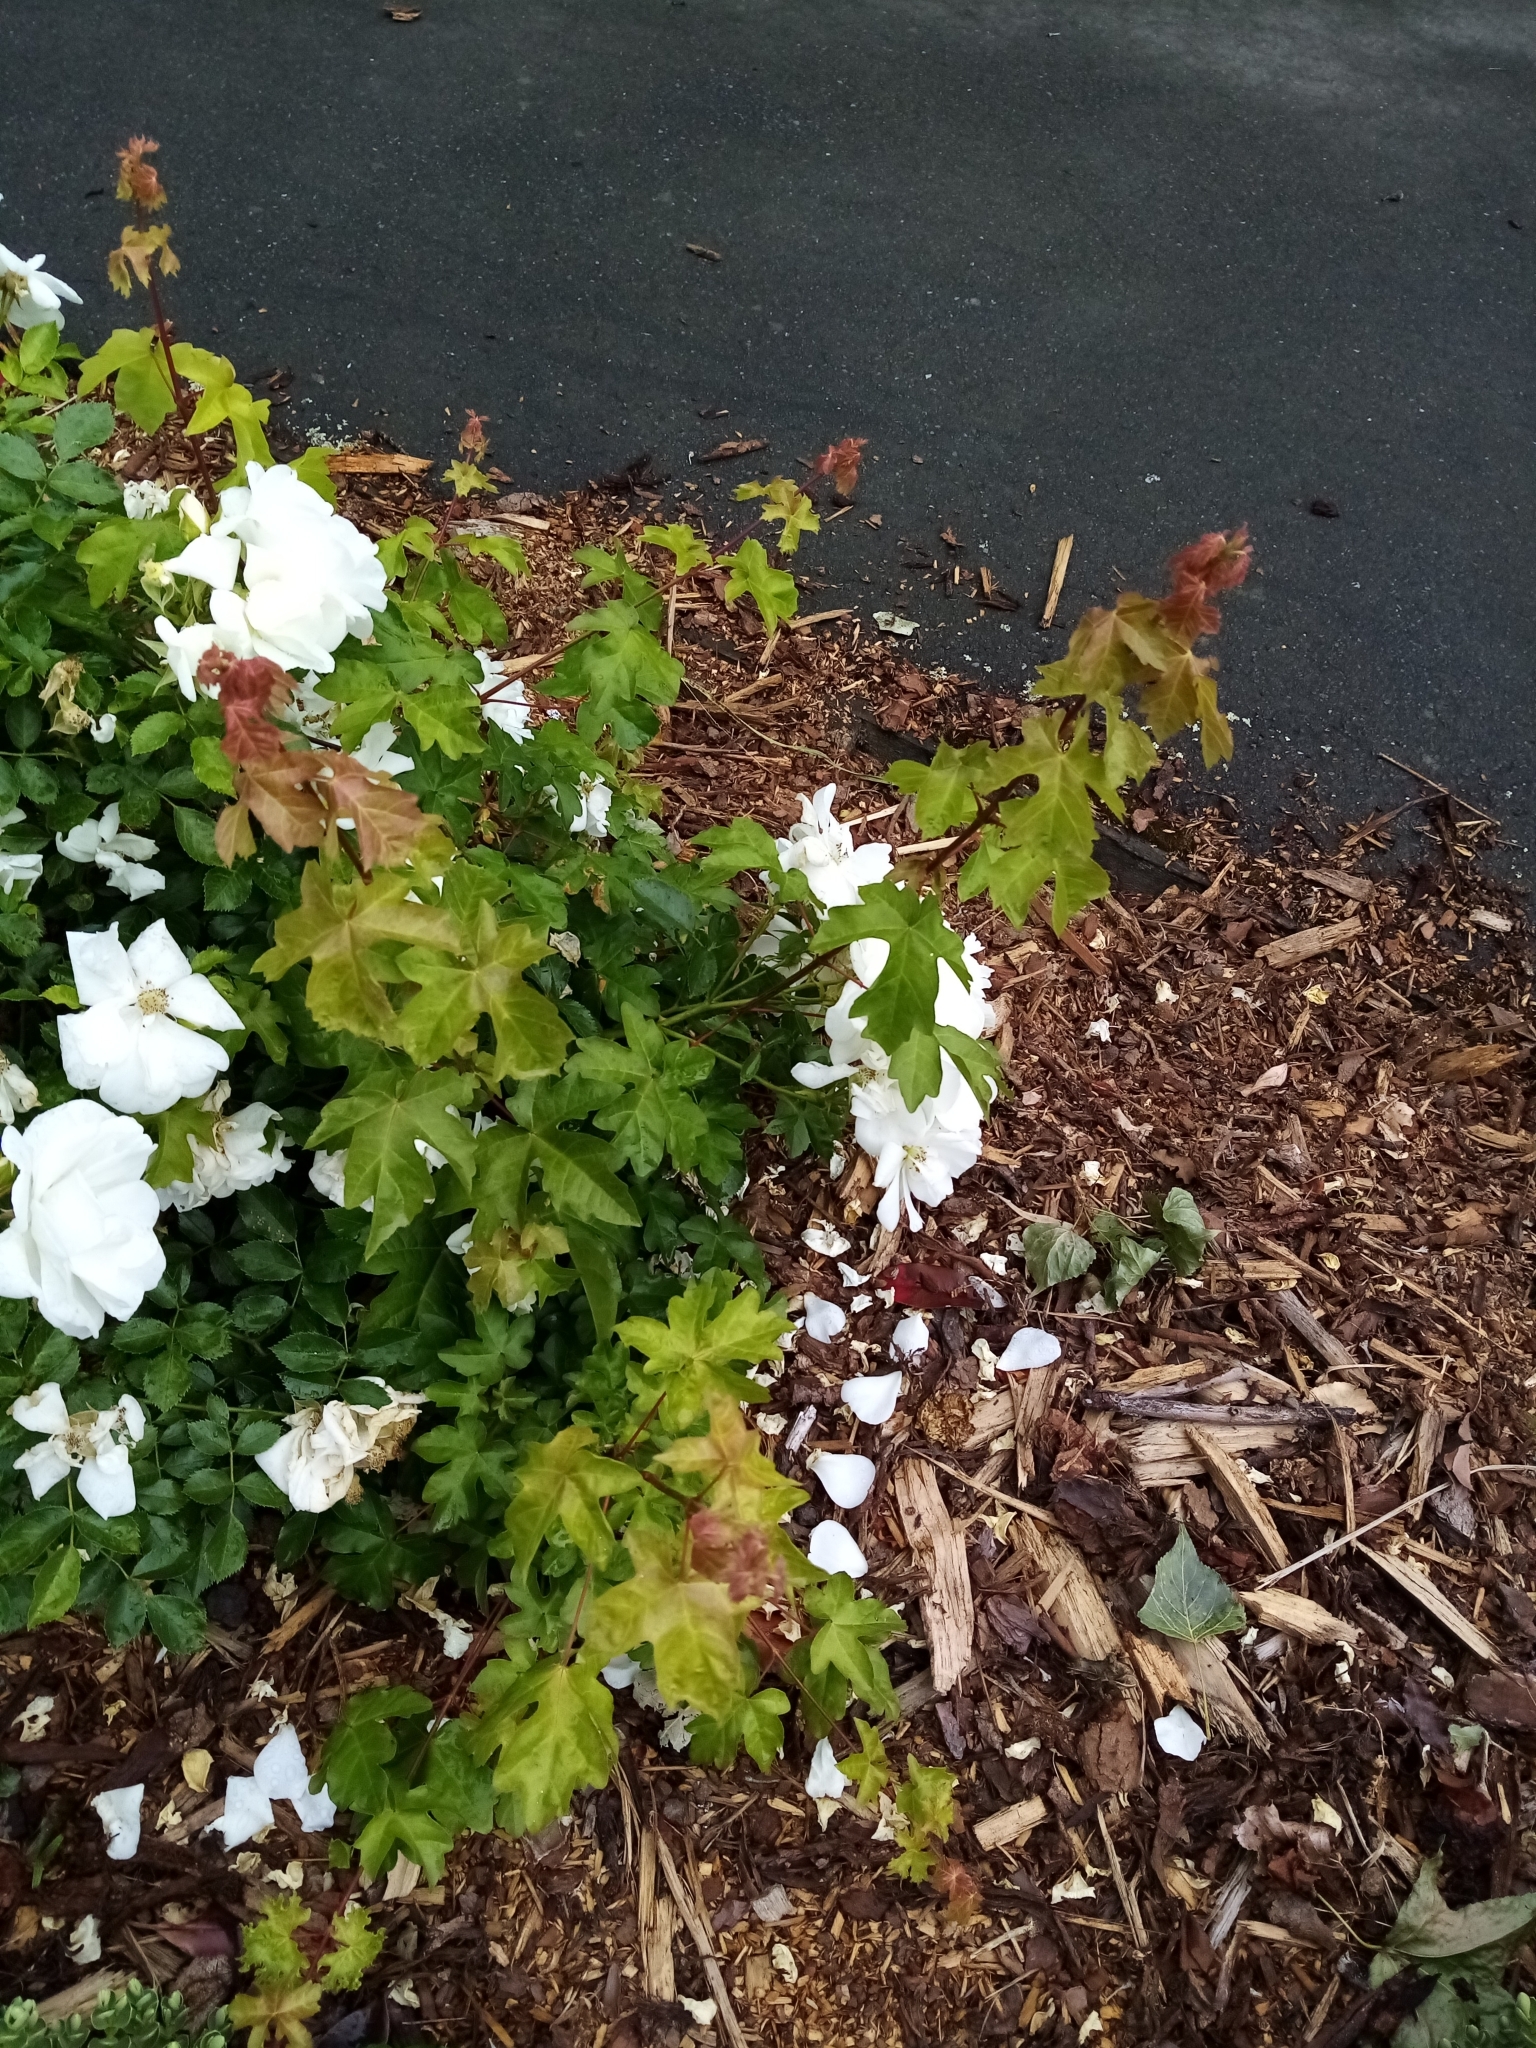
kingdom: Plantae
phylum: Tracheophyta
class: Magnoliopsida
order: Sapindales
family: Sapindaceae
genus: Acer
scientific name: Acer campestre
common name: Field maple
